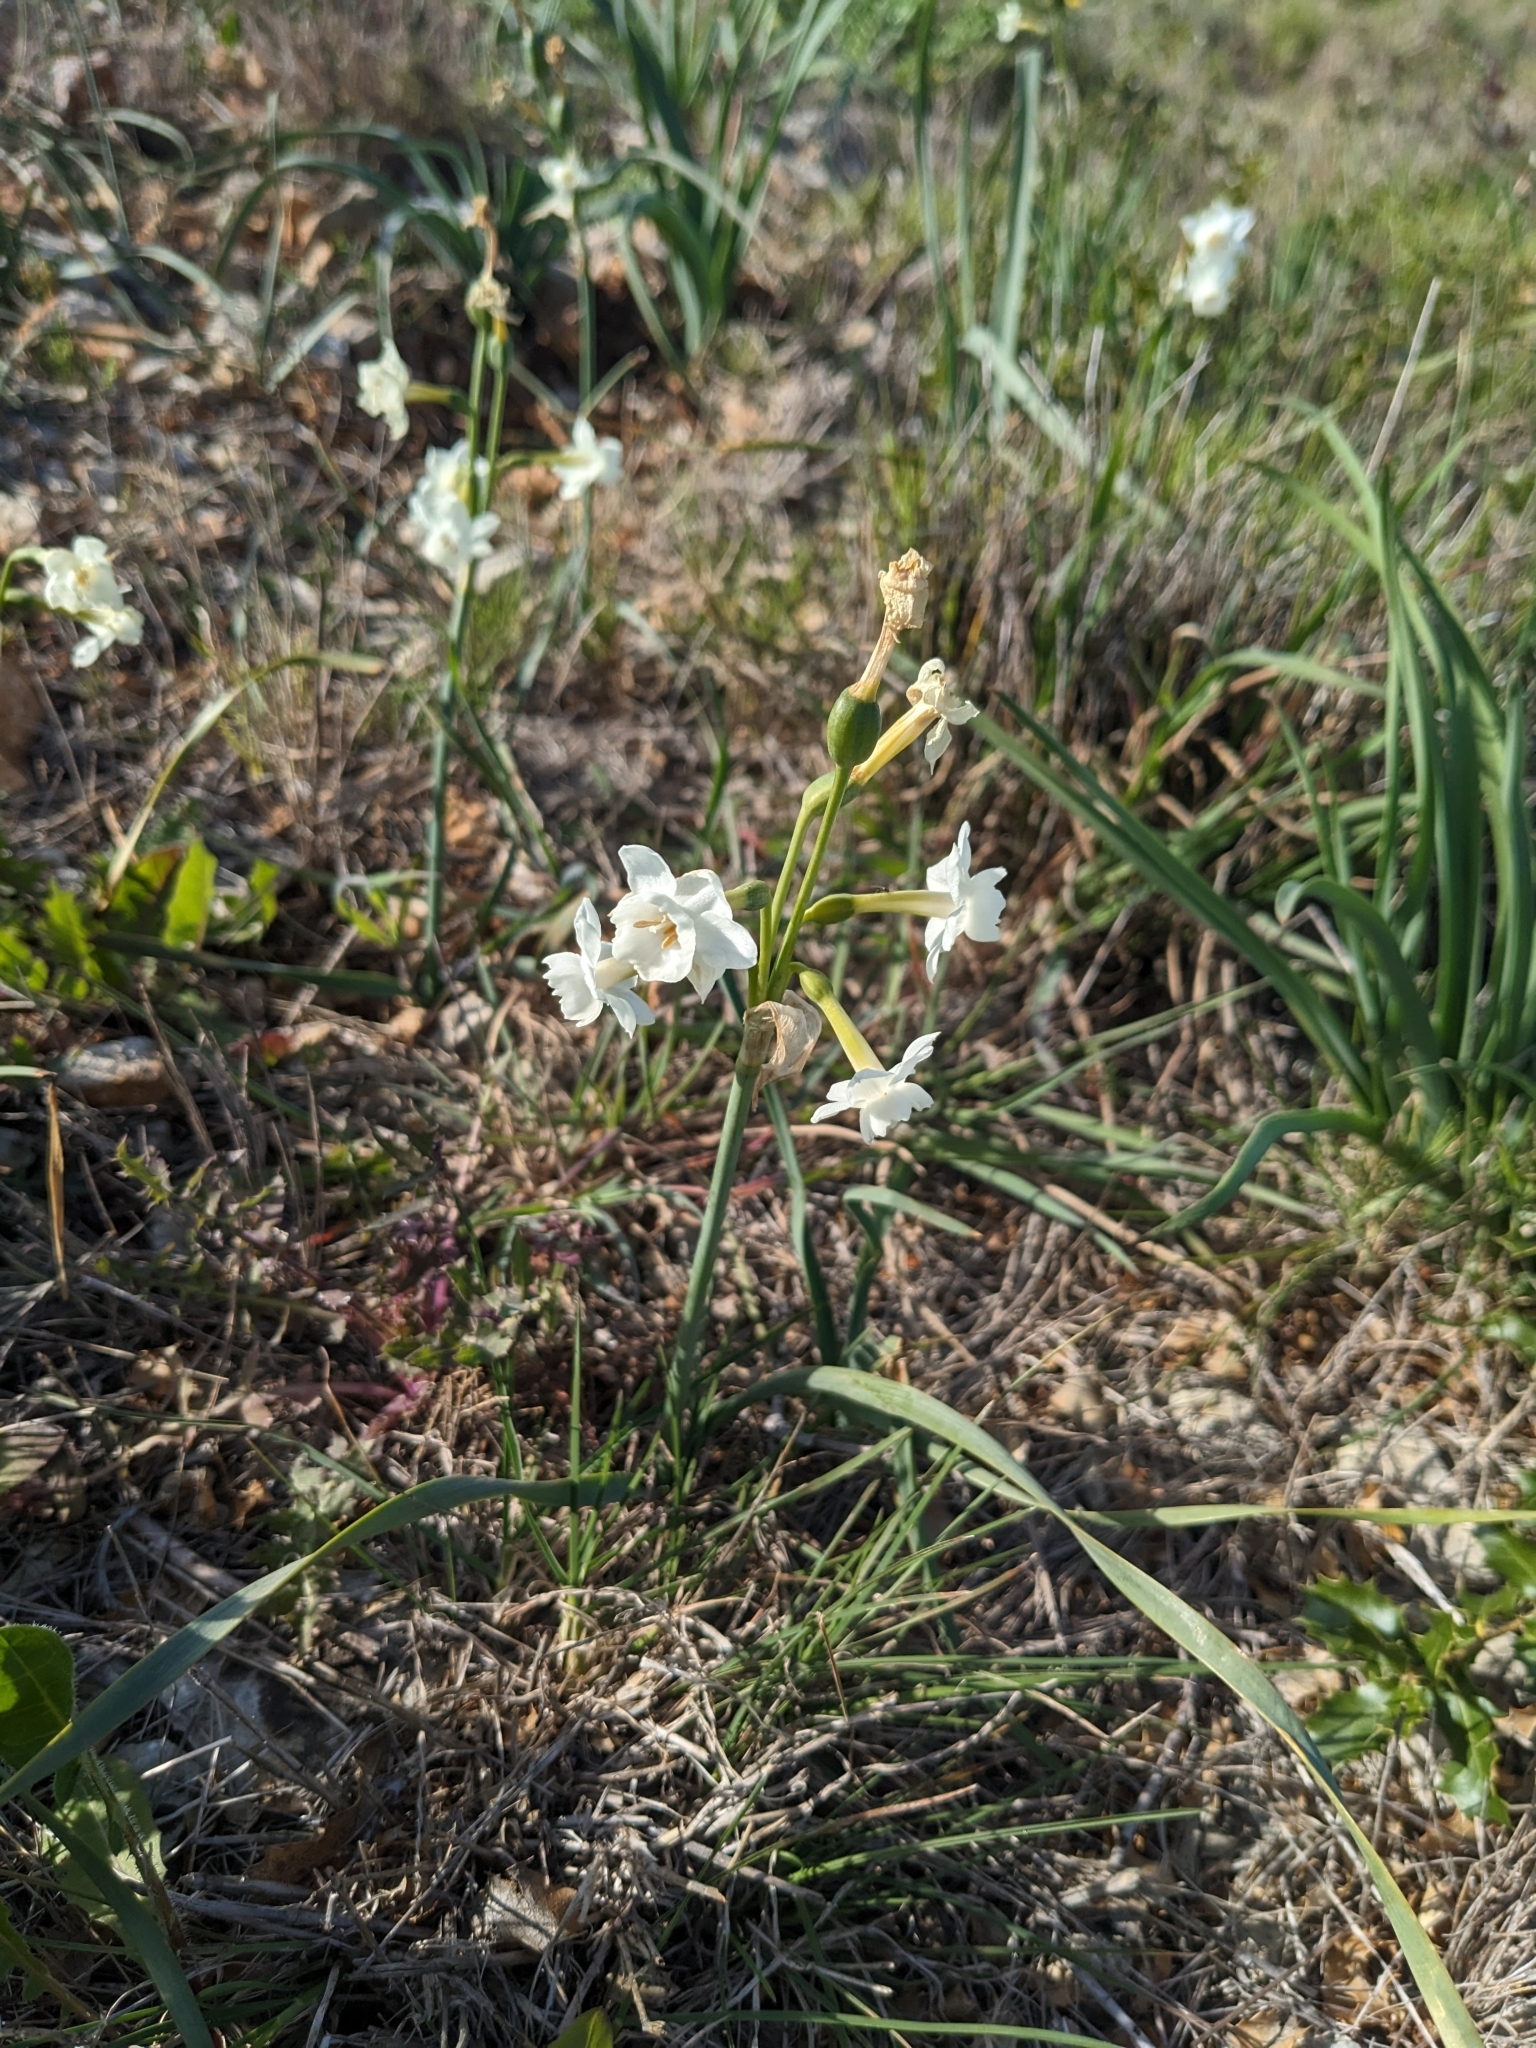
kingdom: Plantae
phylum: Tracheophyta
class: Liliopsida
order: Asparagales
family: Amaryllidaceae
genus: Narcissus
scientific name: Narcissus dubius
